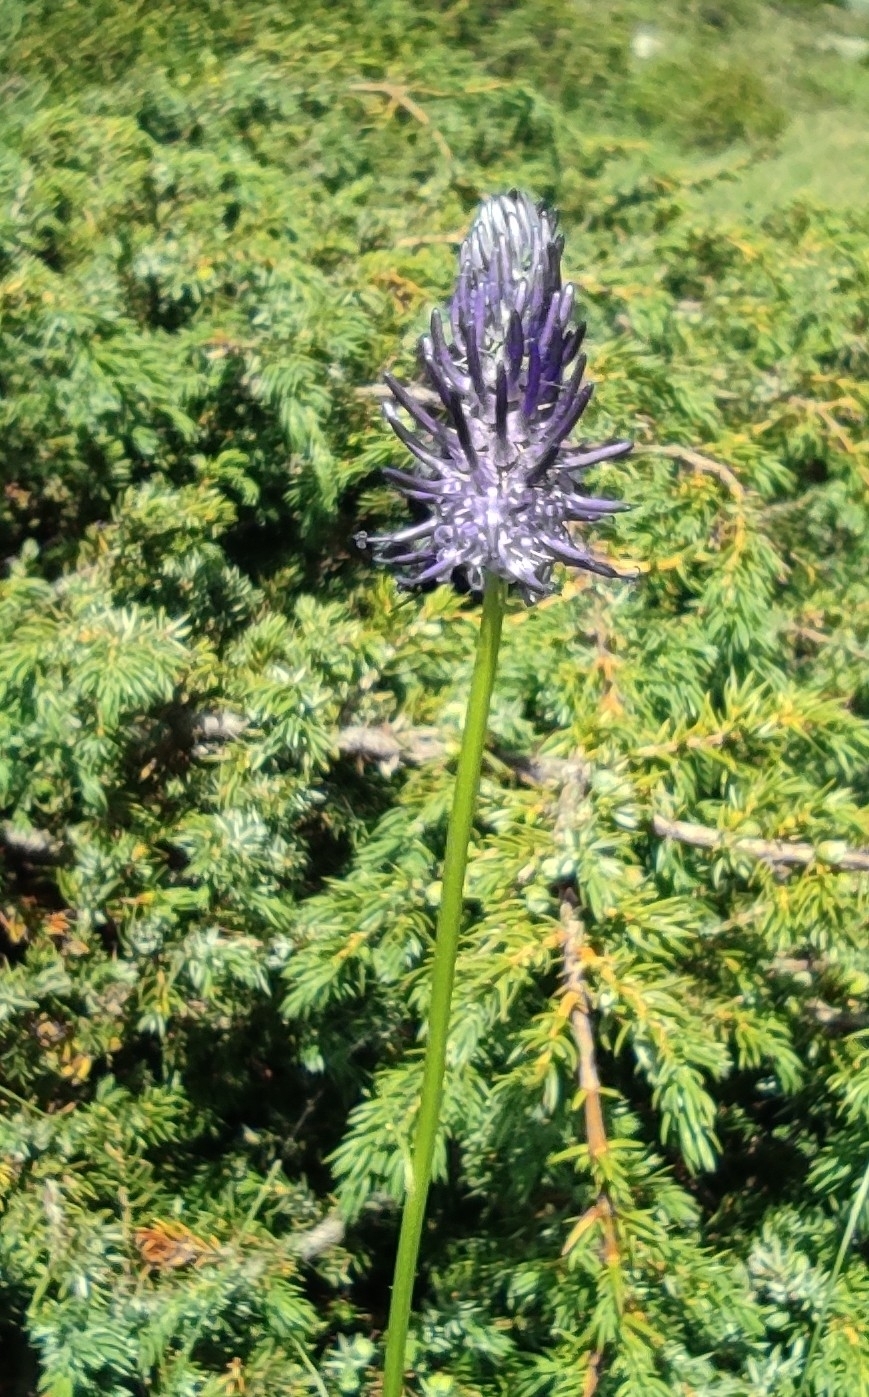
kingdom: Plantae
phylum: Tracheophyta
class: Magnoliopsida
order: Asterales
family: Campanulaceae
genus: Phyteuma
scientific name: Phyteuma betonicifolium
